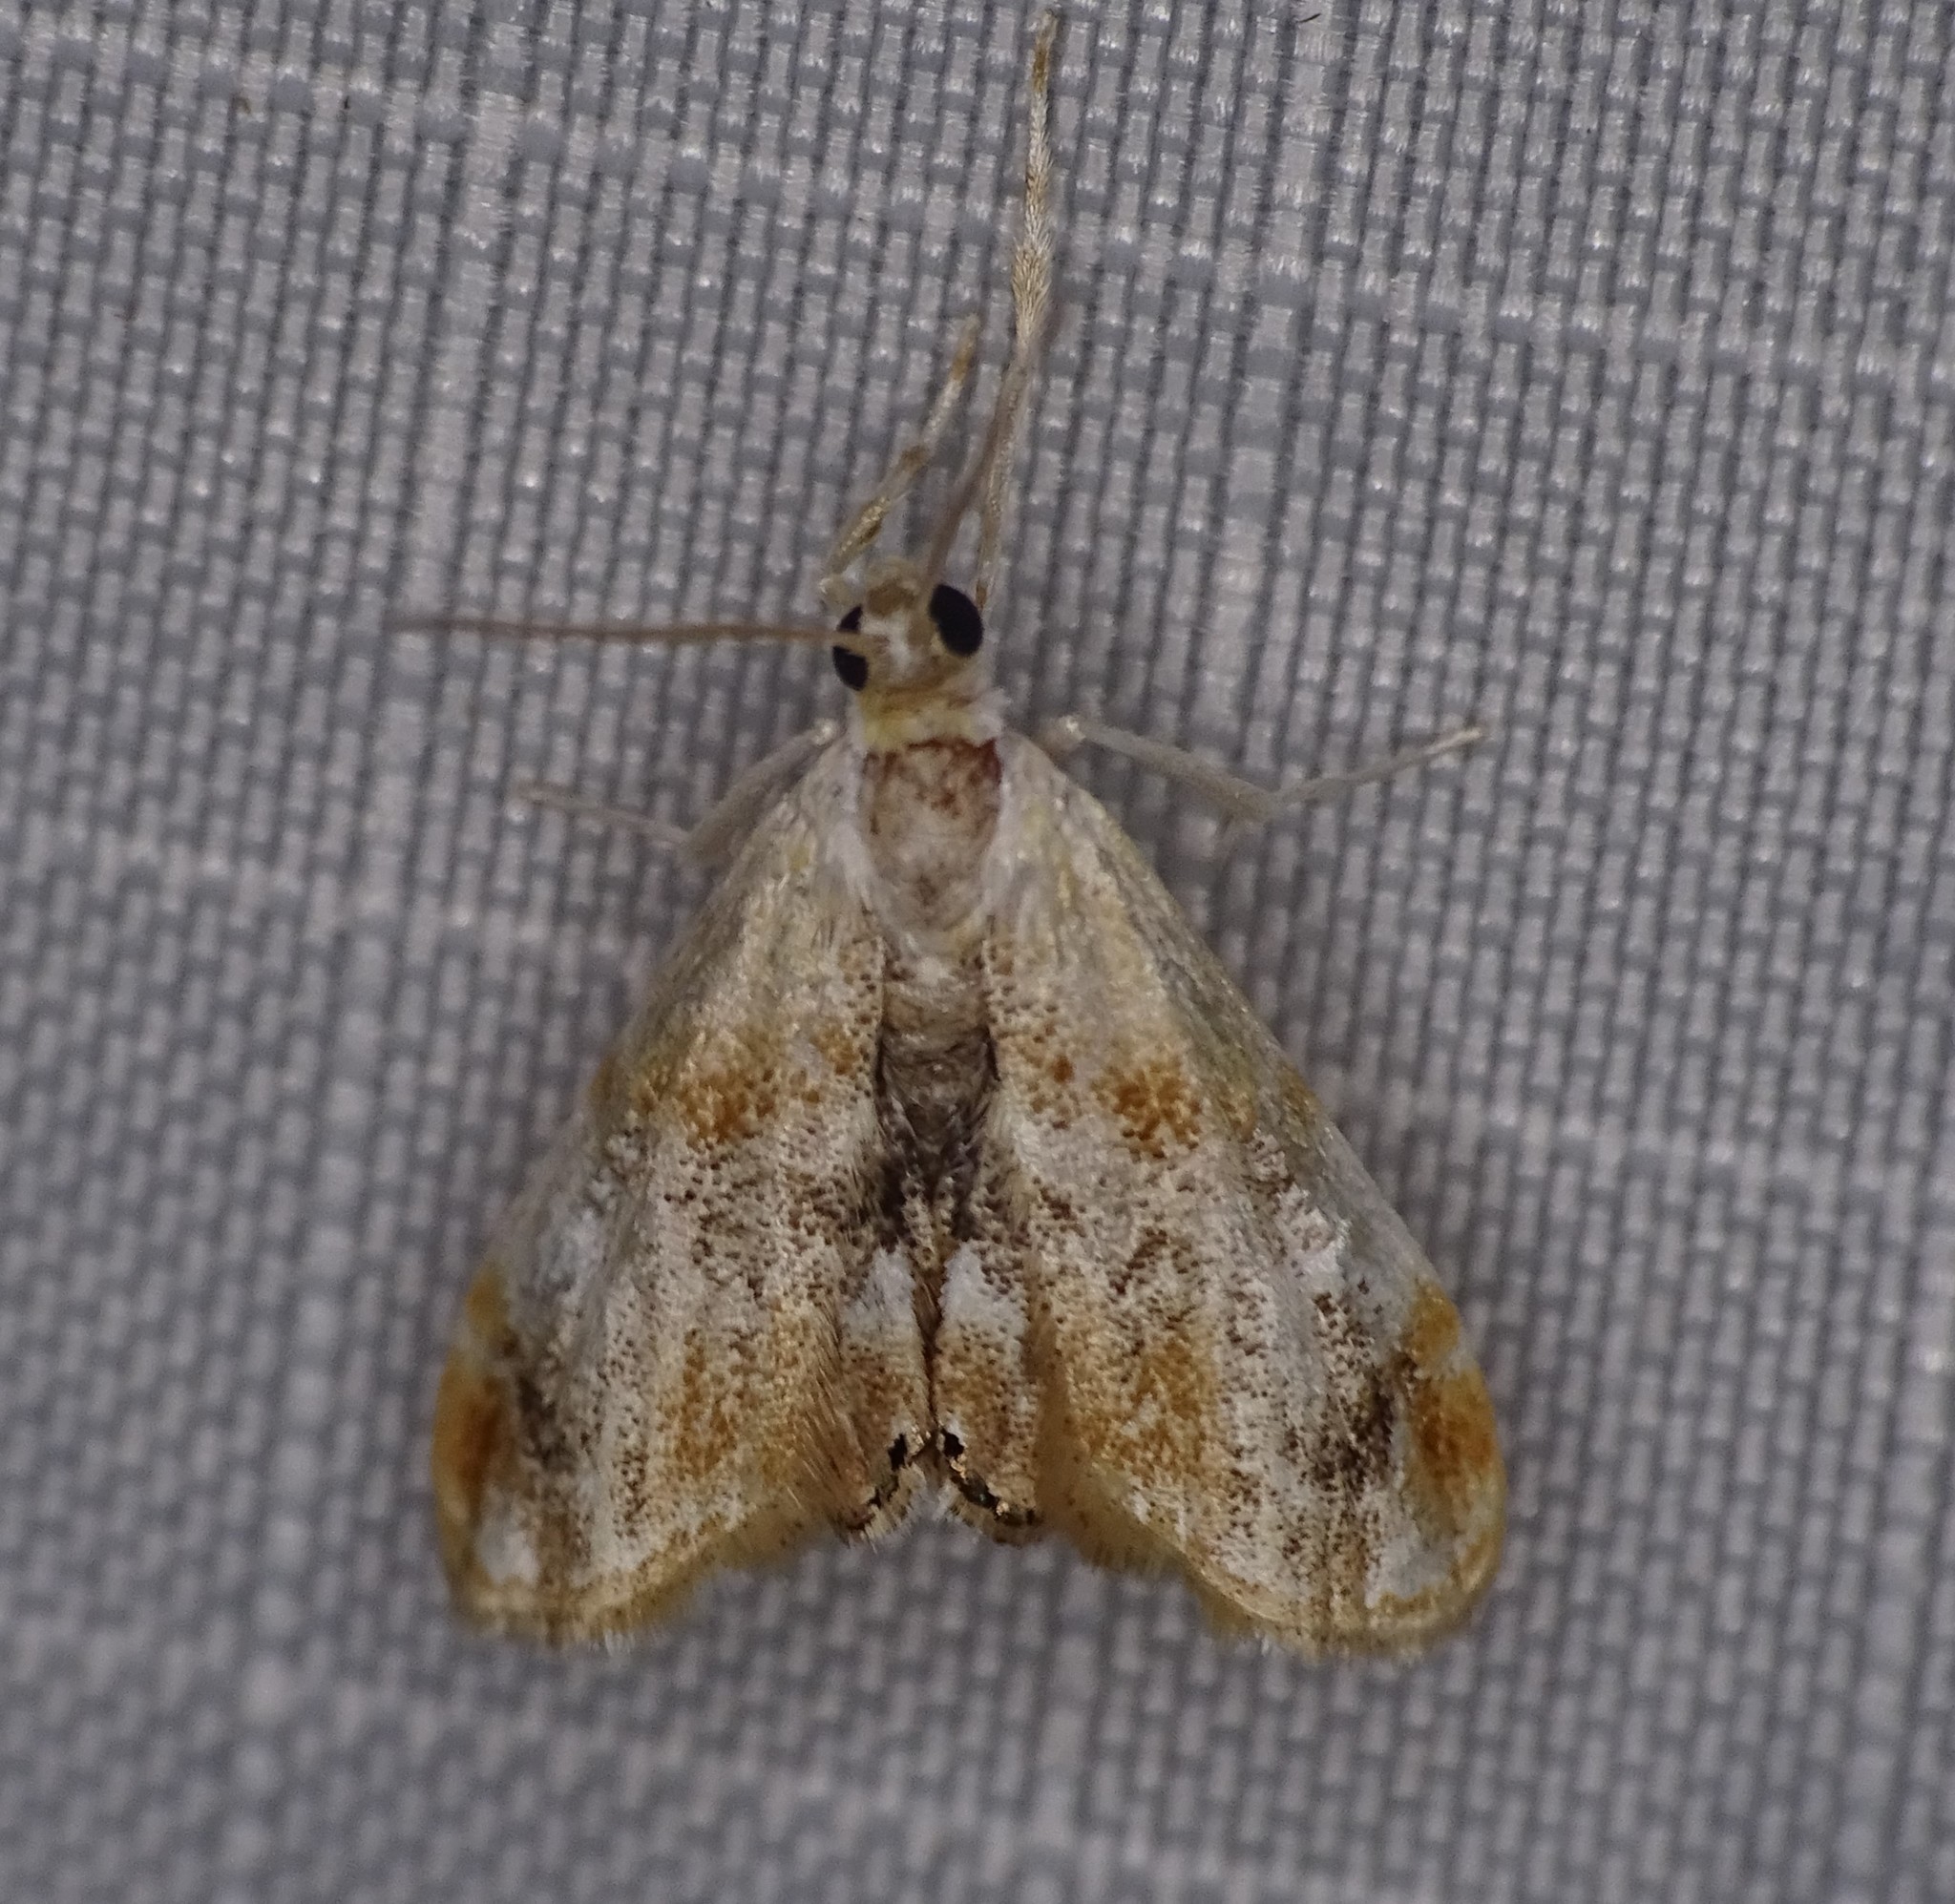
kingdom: Animalia
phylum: Arthropoda
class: Insecta
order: Lepidoptera
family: Crambidae
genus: Dicymolomia
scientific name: Dicymolomia julianalis
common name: Julia's dicymolomia moth
